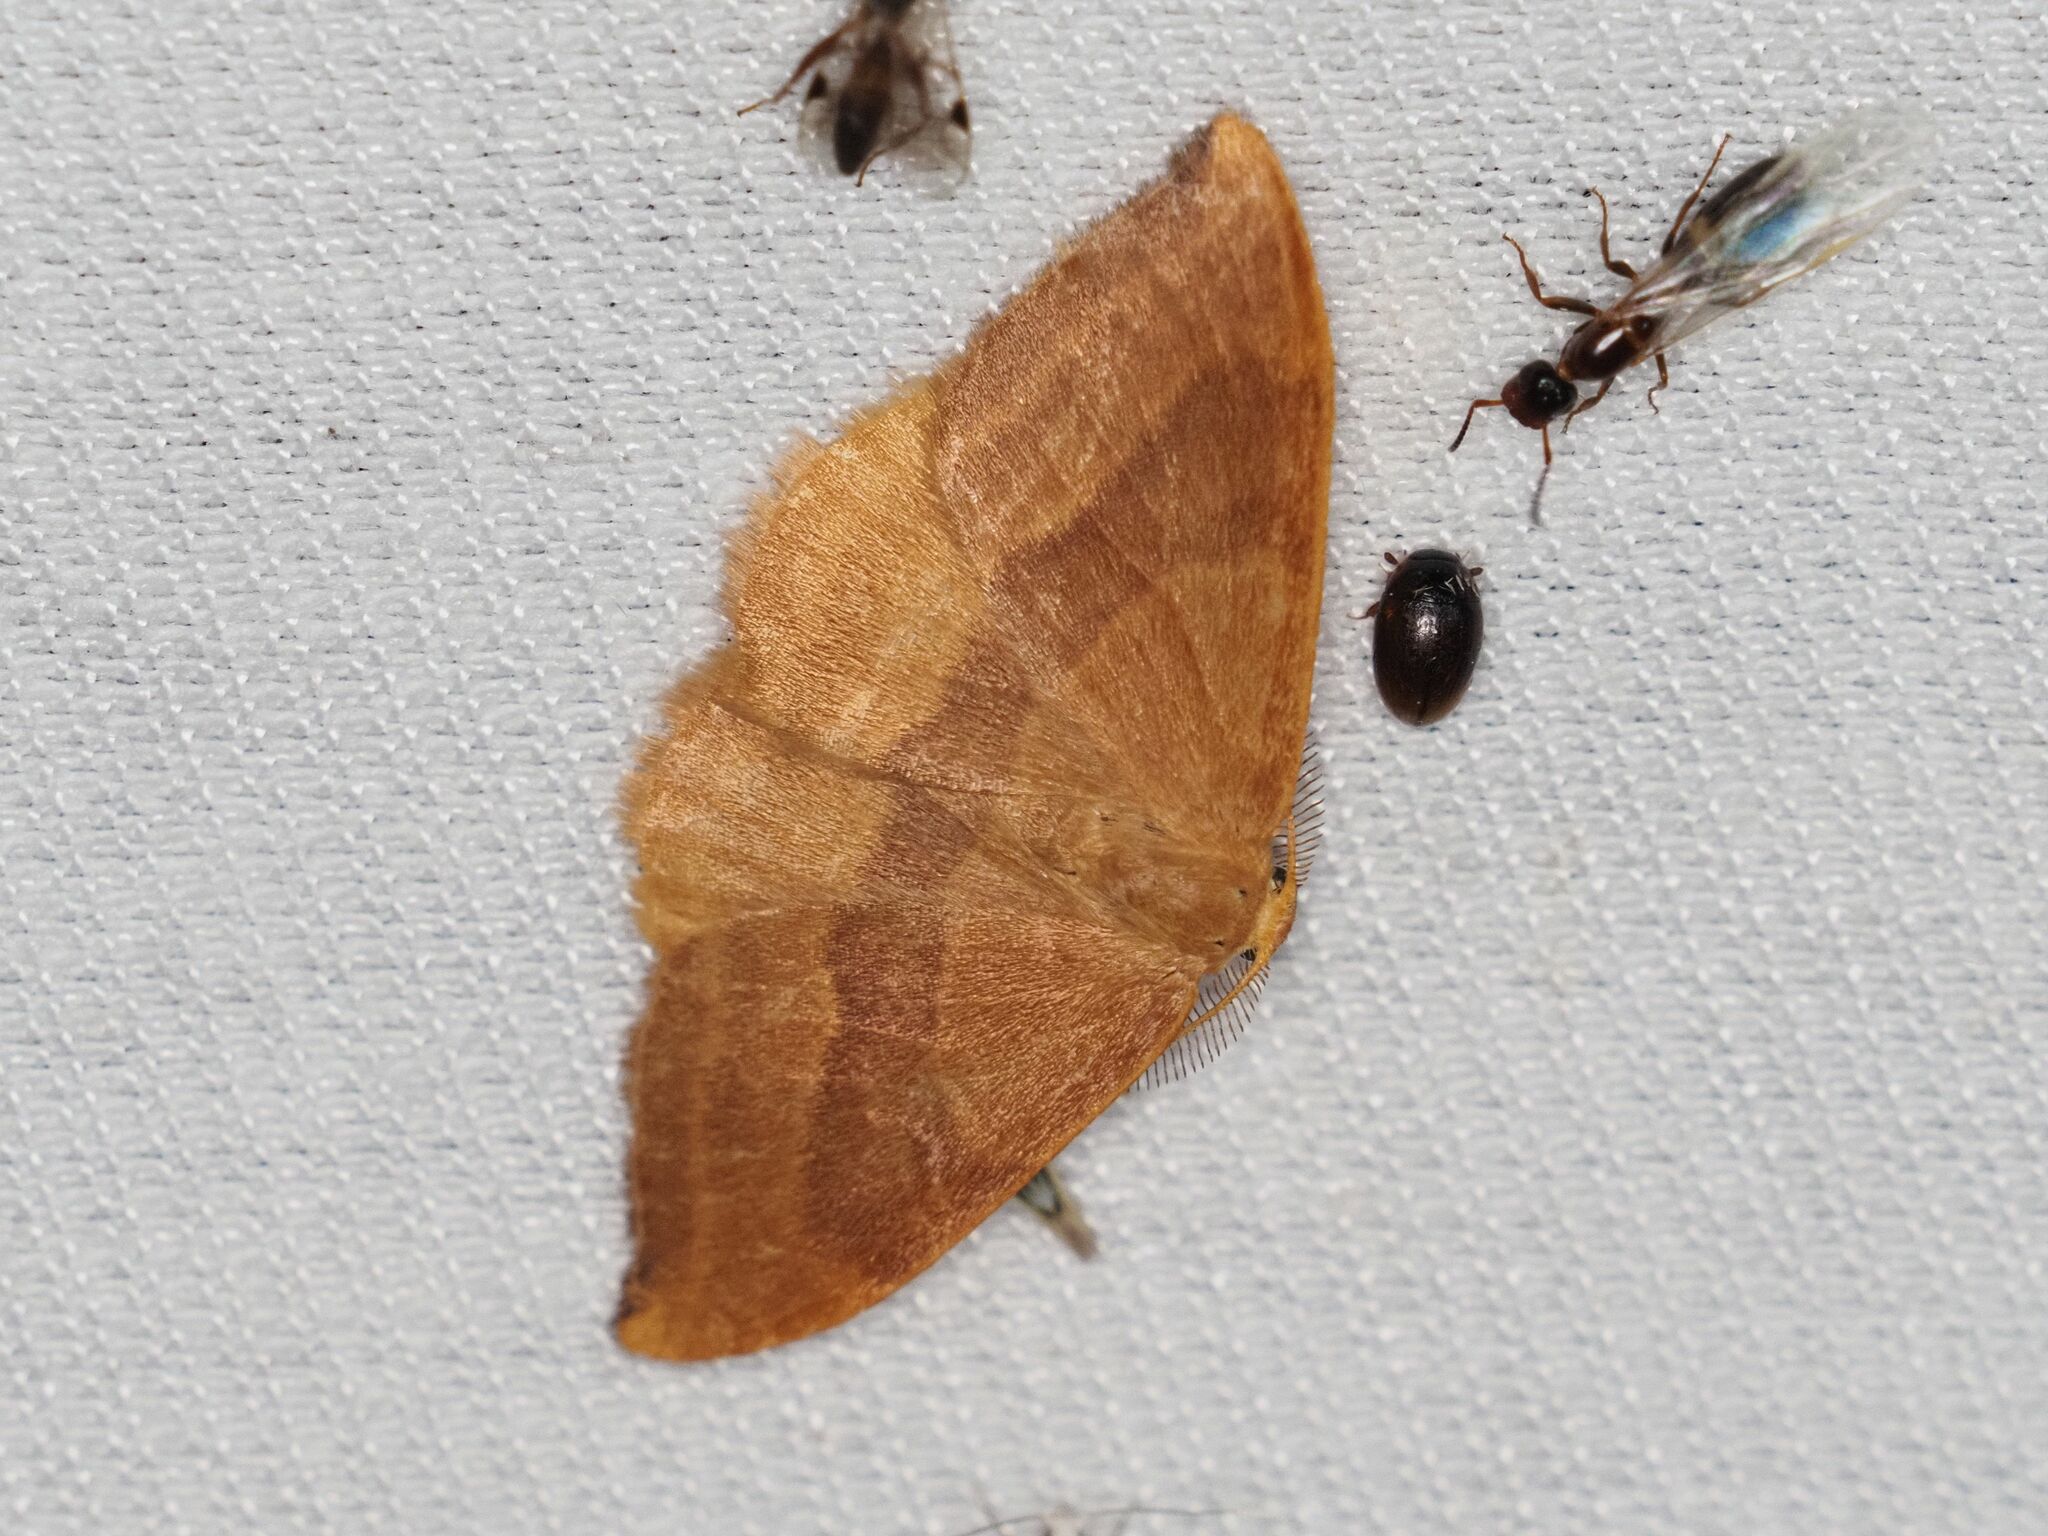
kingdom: Animalia
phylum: Arthropoda
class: Insecta
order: Lepidoptera
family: Drepanidae
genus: Watsonalla
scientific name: Watsonalla cultraria
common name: Barred hook-tip
